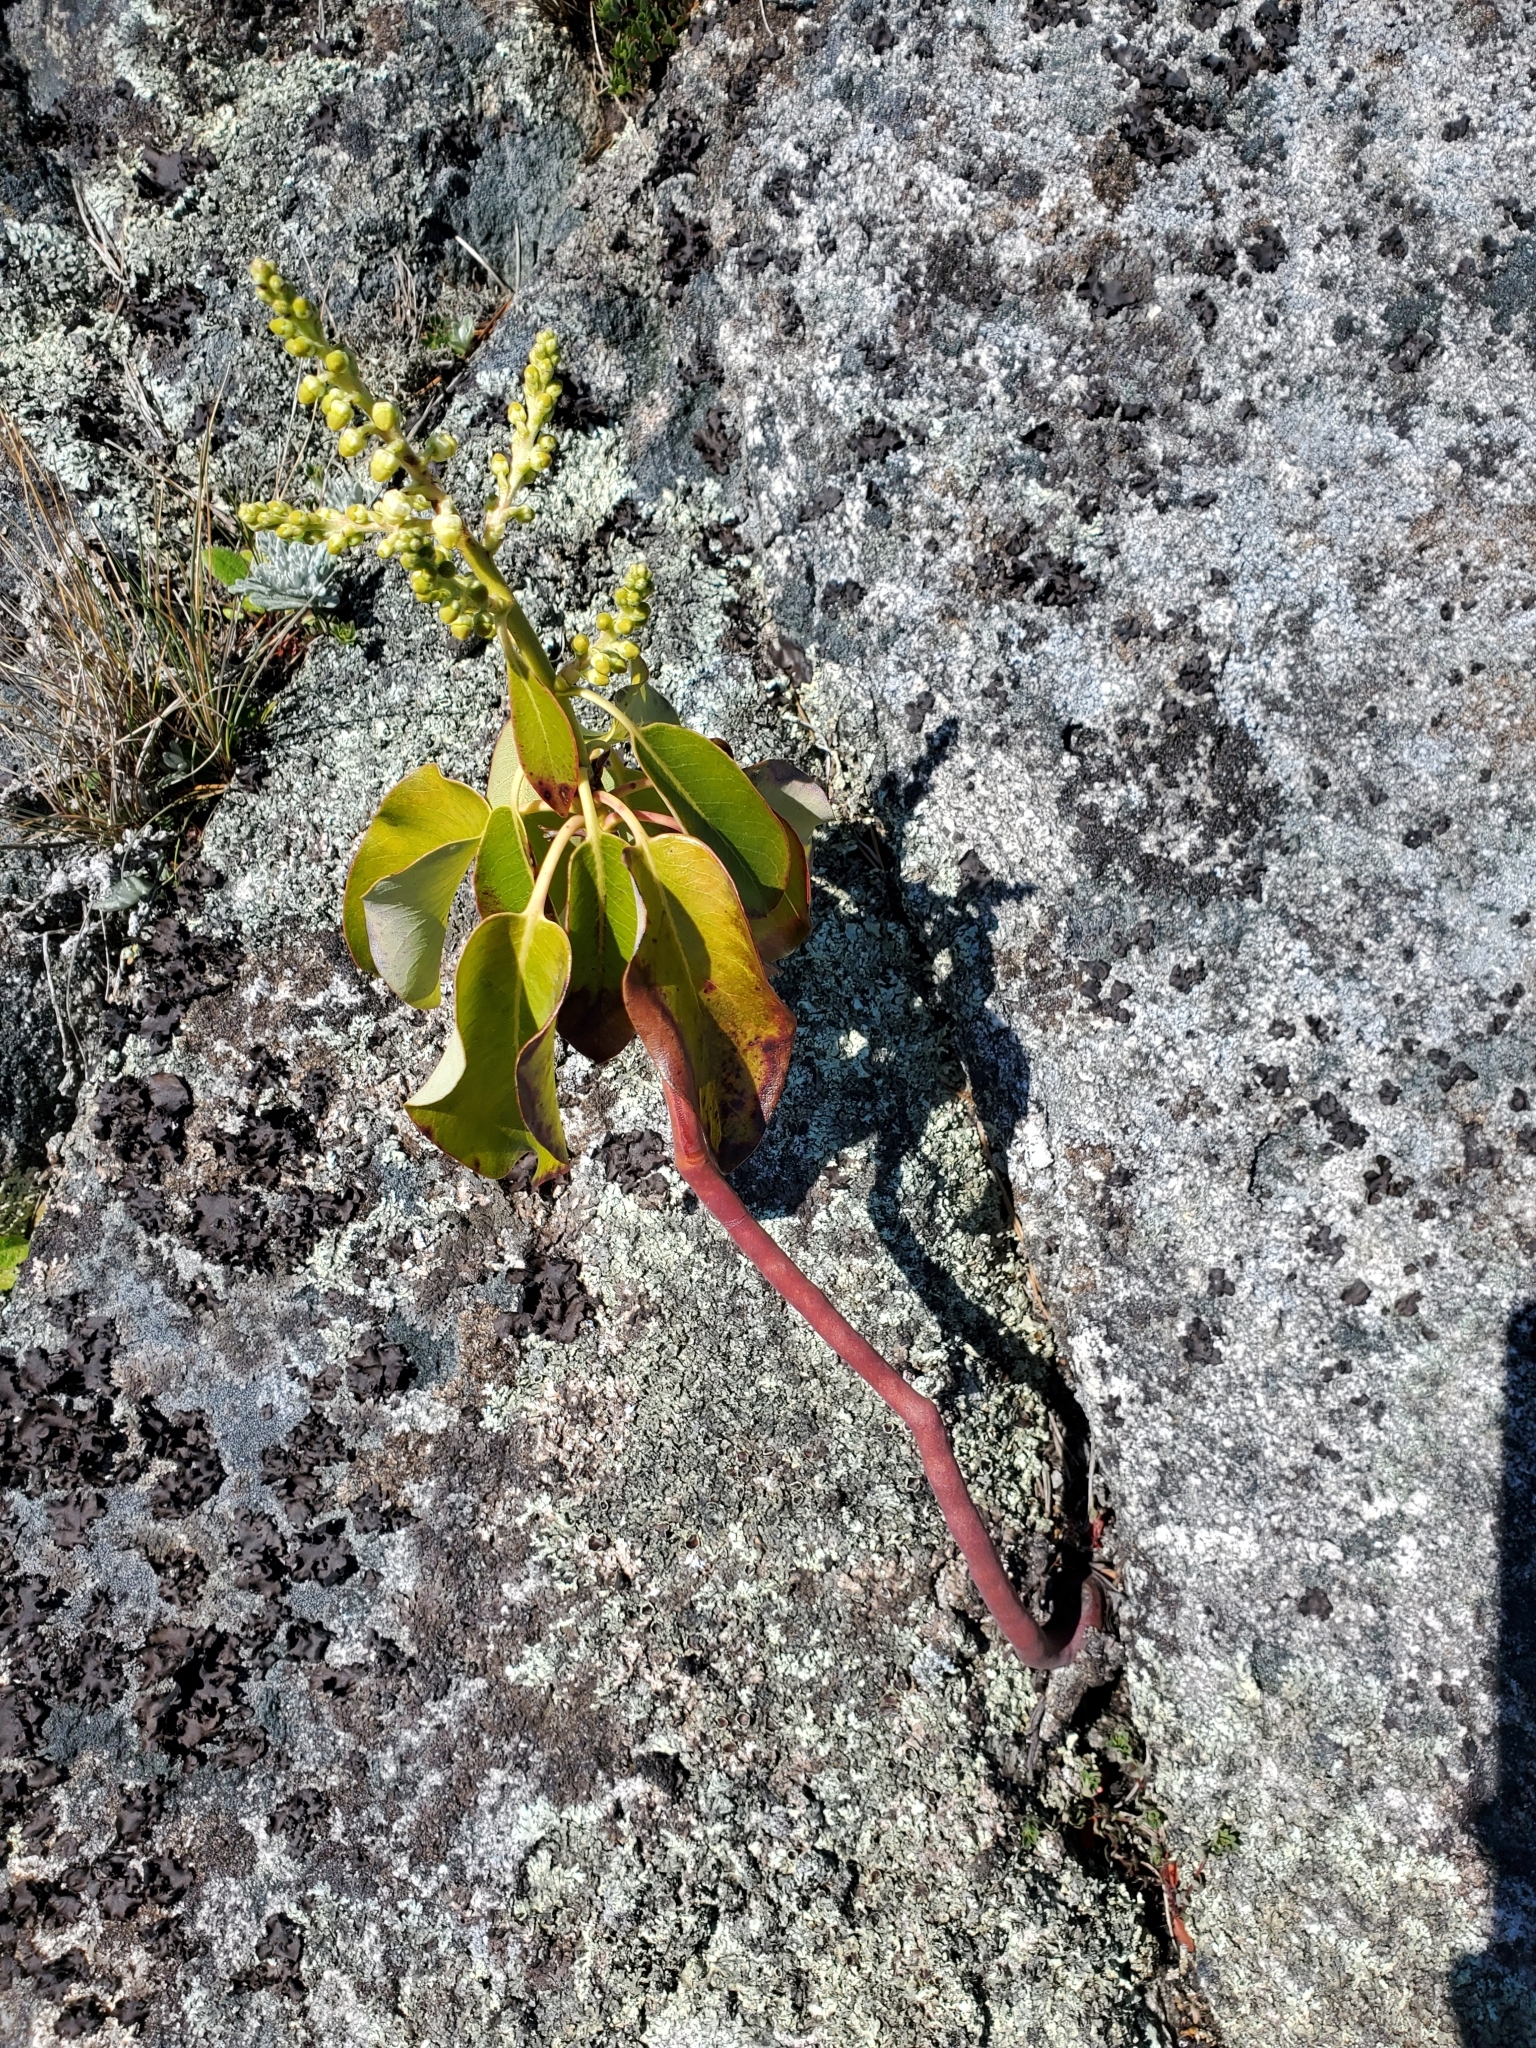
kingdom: Plantae
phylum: Tracheophyta
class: Magnoliopsida
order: Ericales
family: Ericaceae
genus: Arbutus
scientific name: Arbutus menziesii
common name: Pacific madrone
